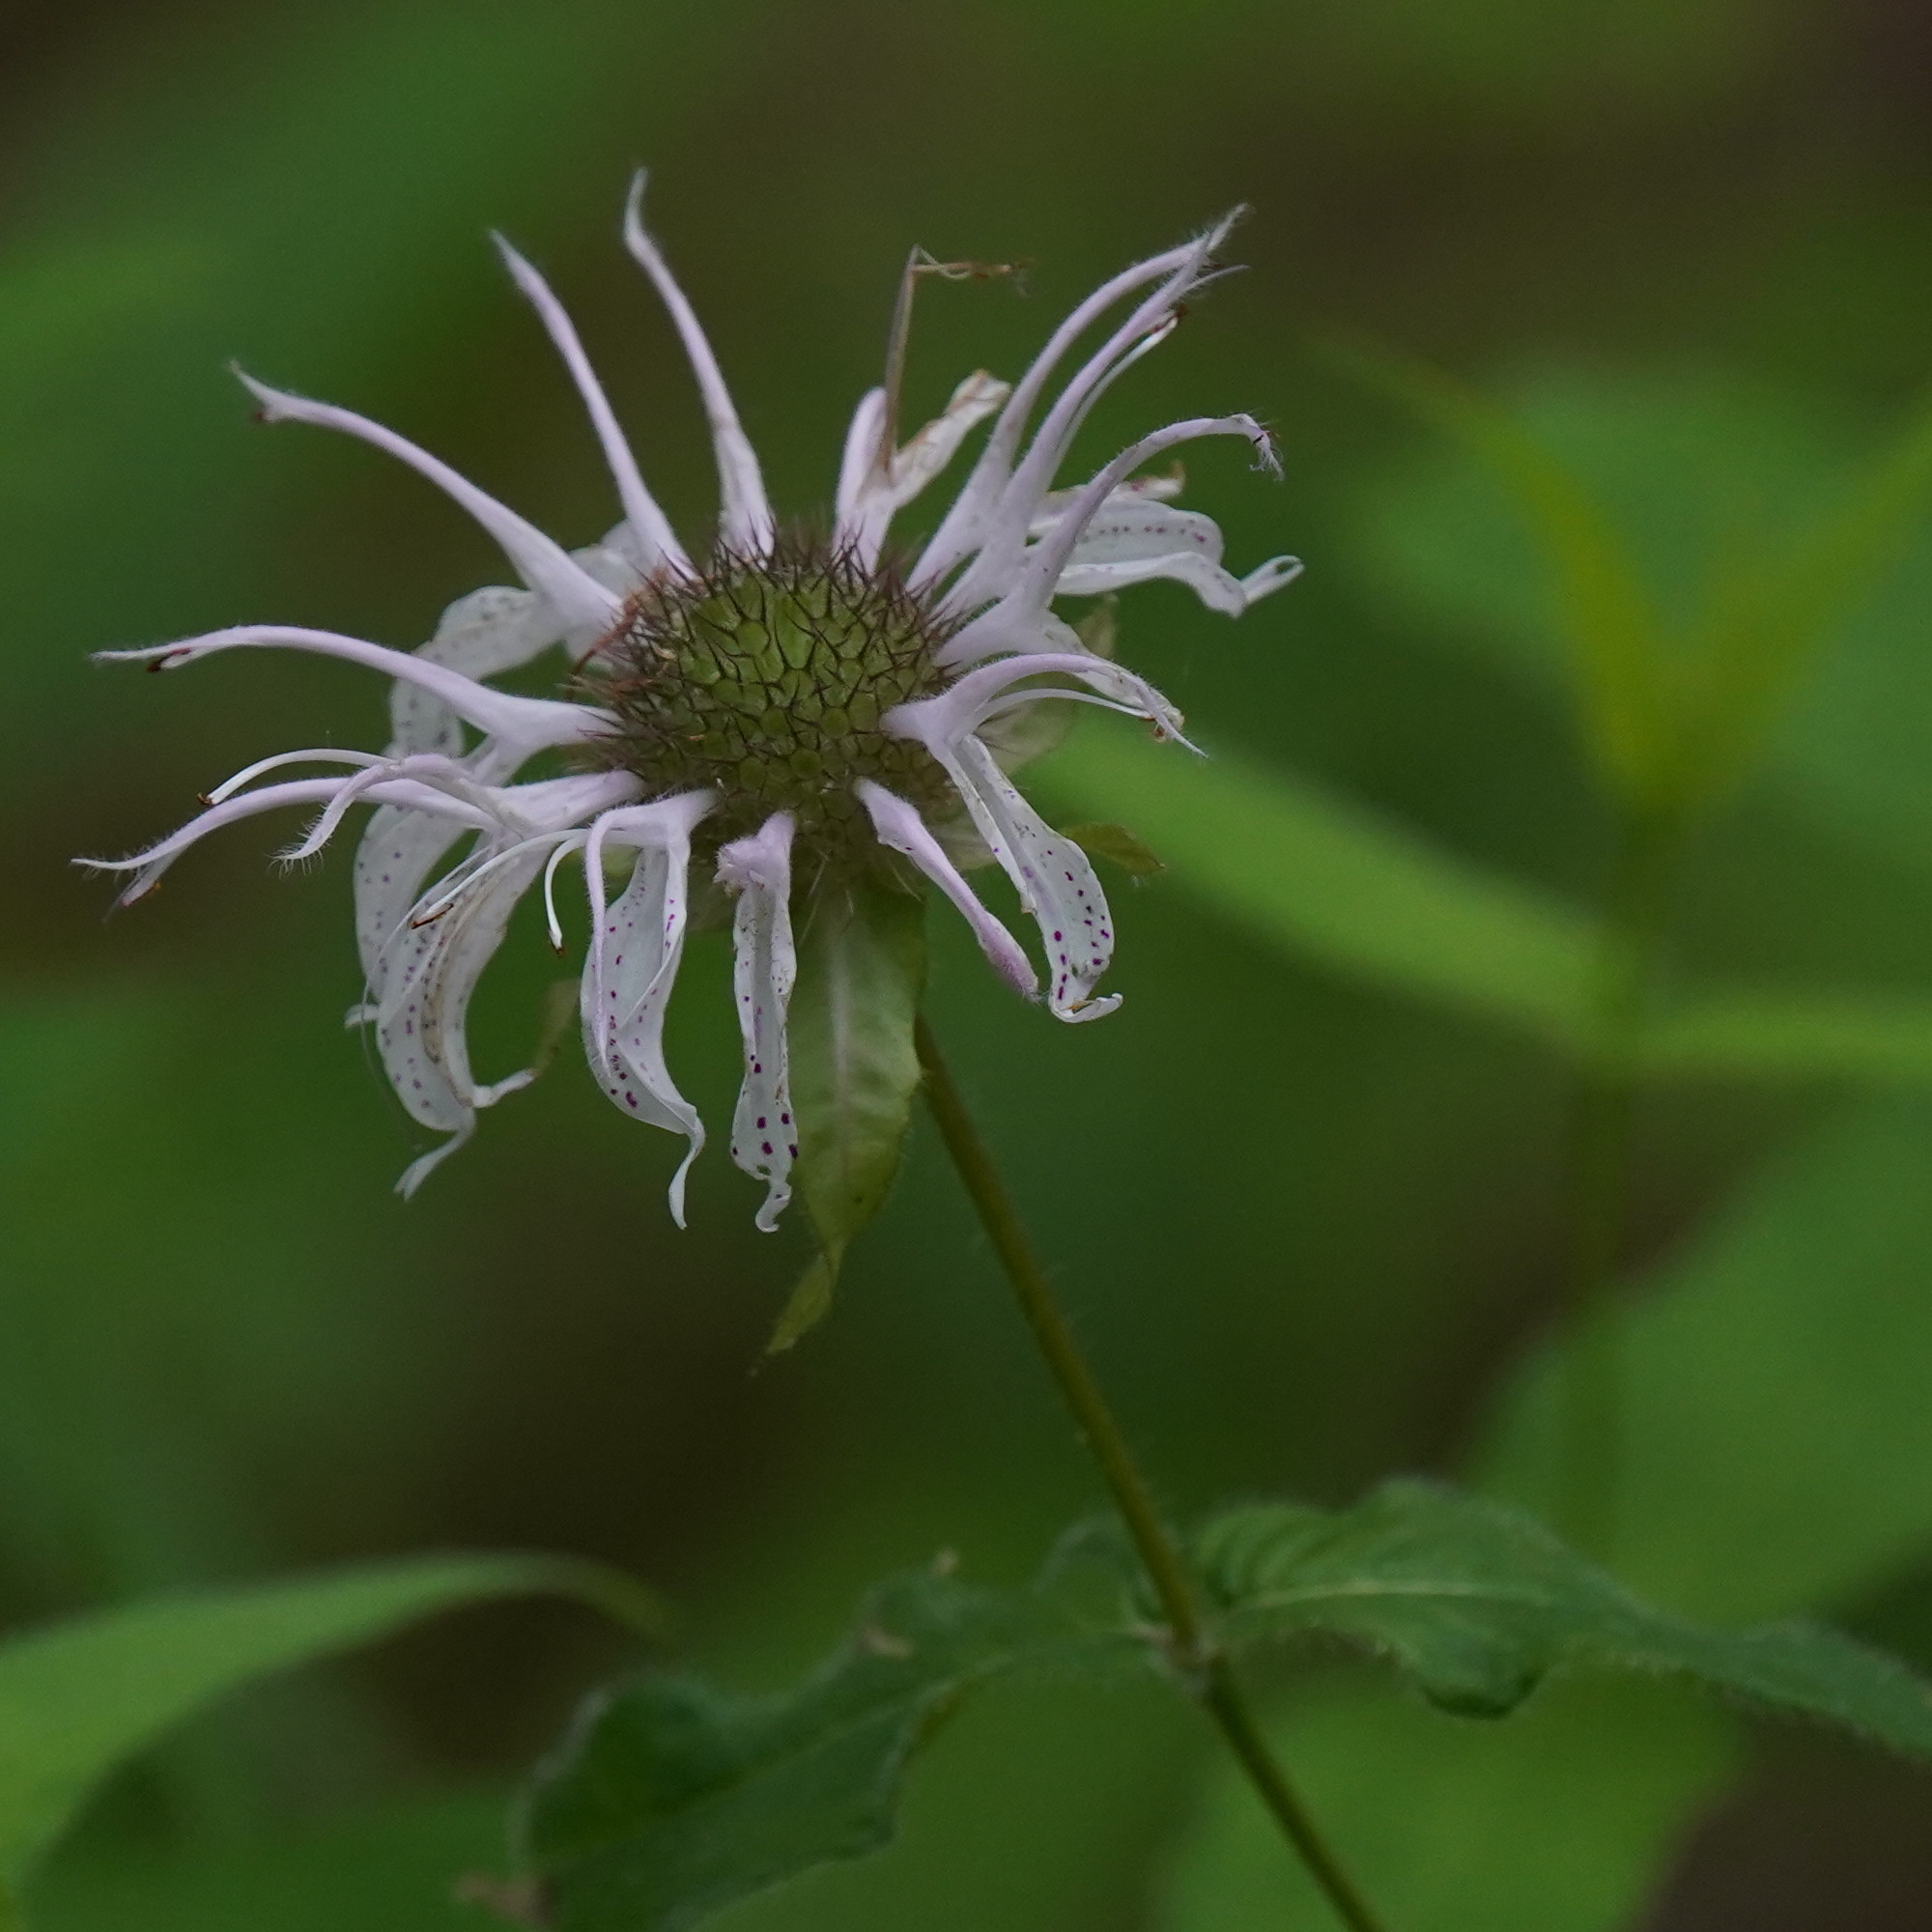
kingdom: Plantae
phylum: Tracheophyta
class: Magnoliopsida
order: Lamiales
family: Lamiaceae
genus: Monarda
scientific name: Monarda bradburiana
